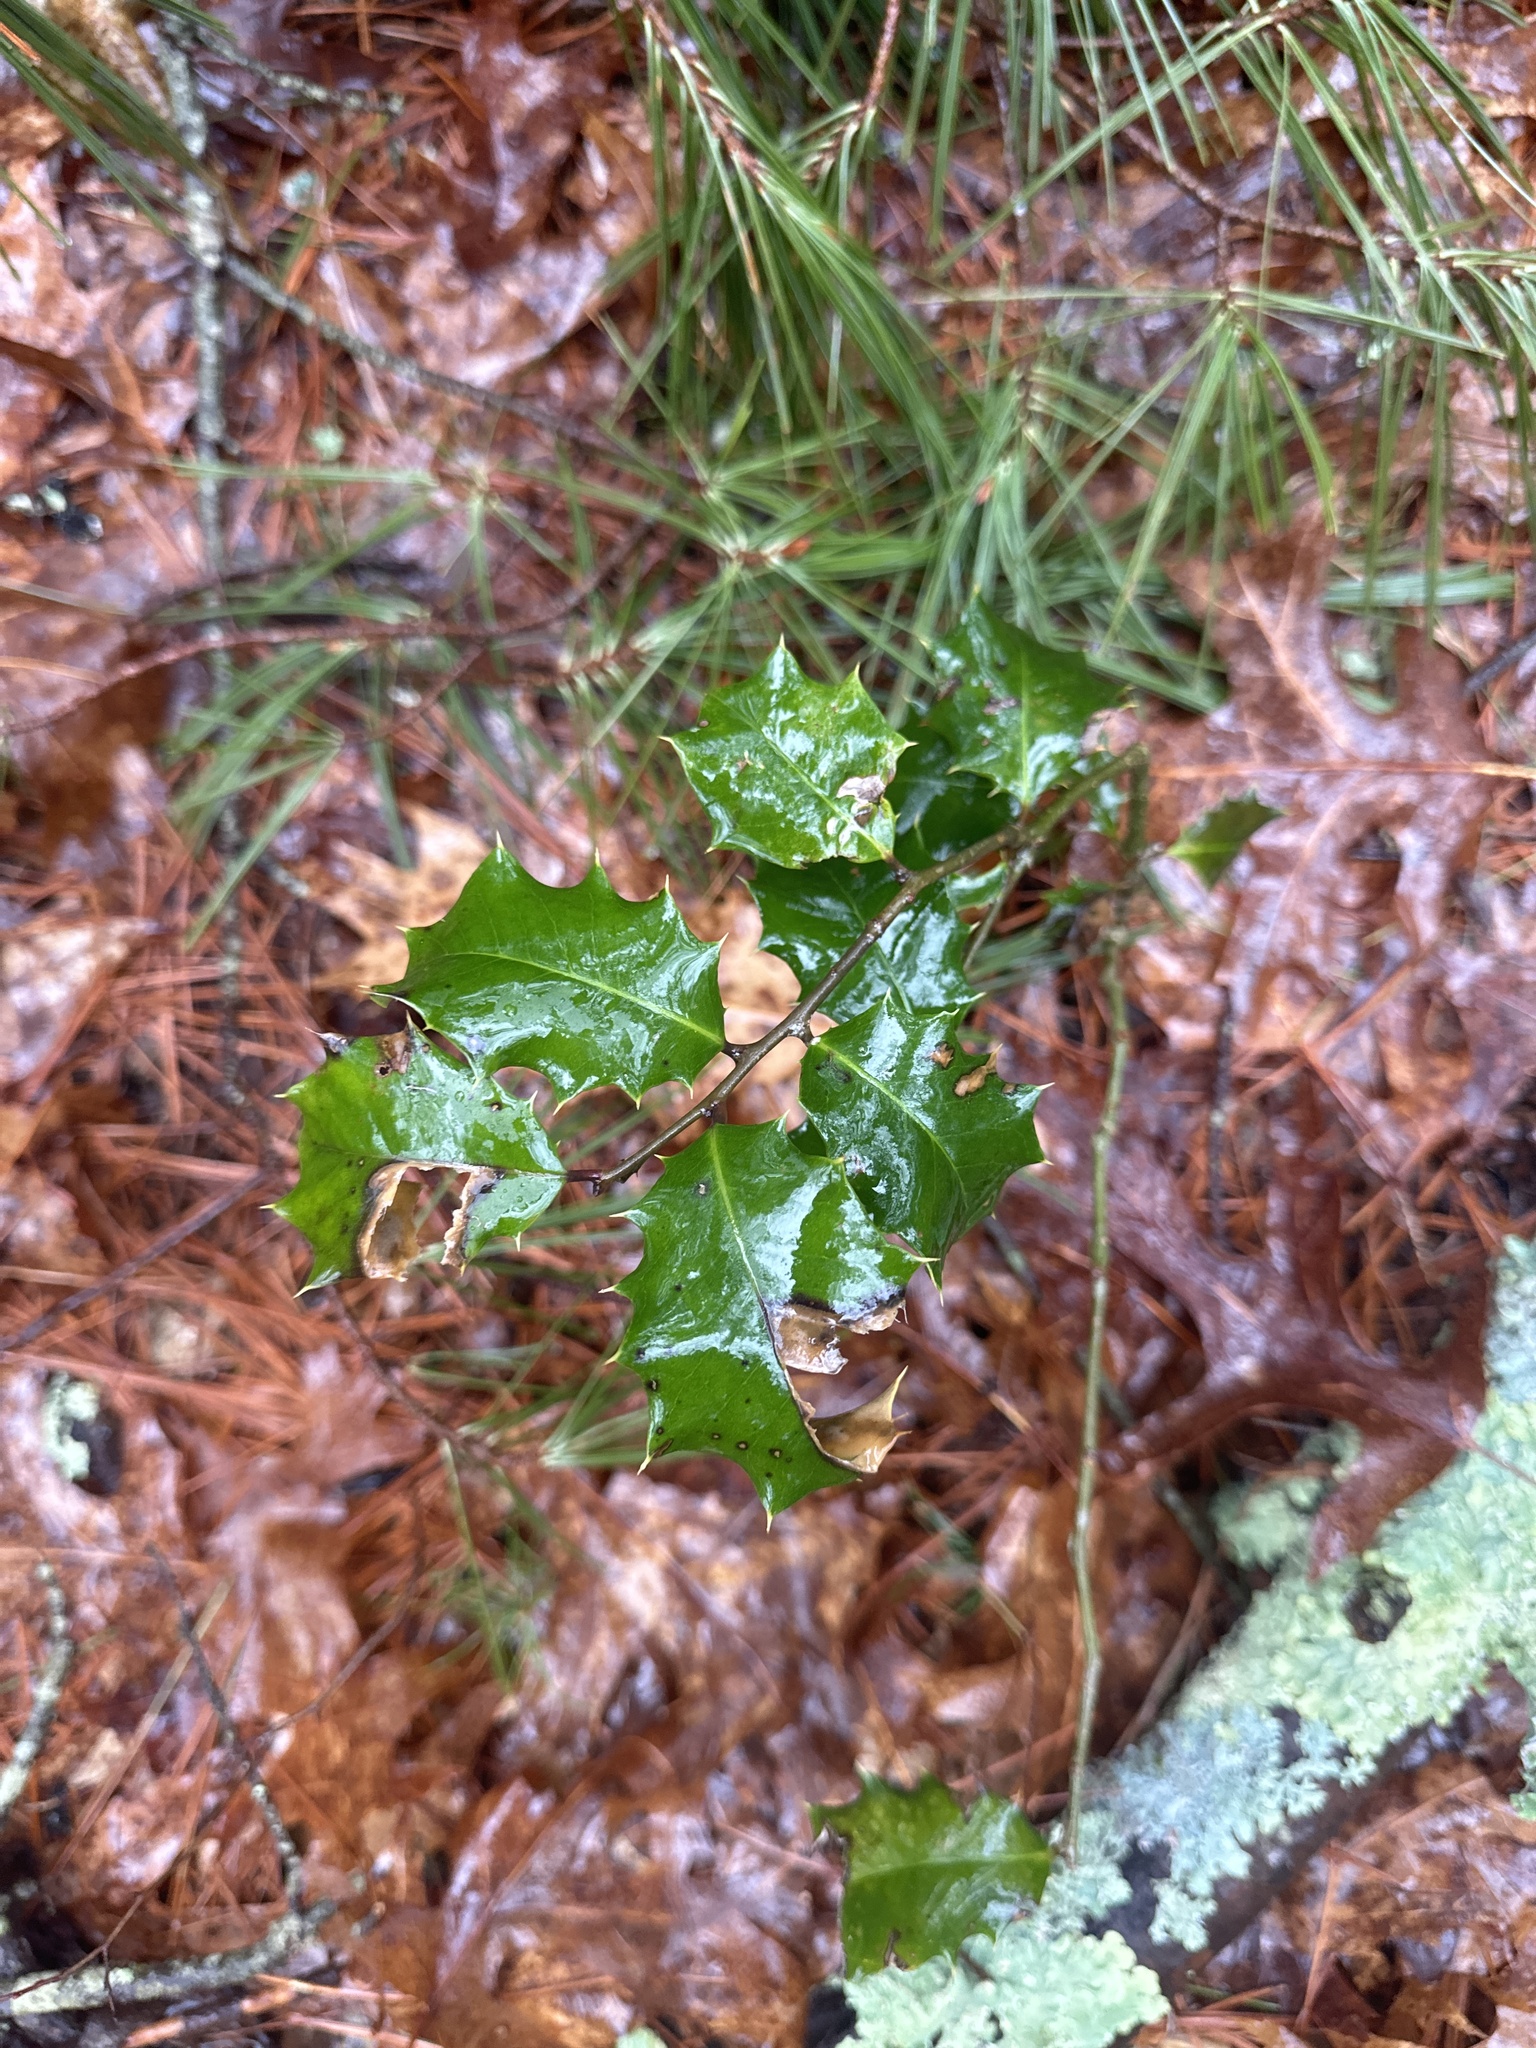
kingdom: Plantae
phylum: Tracheophyta
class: Magnoliopsida
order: Aquifoliales
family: Aquifoliaceae
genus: Ilex
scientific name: Ilex opaca
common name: American holly
